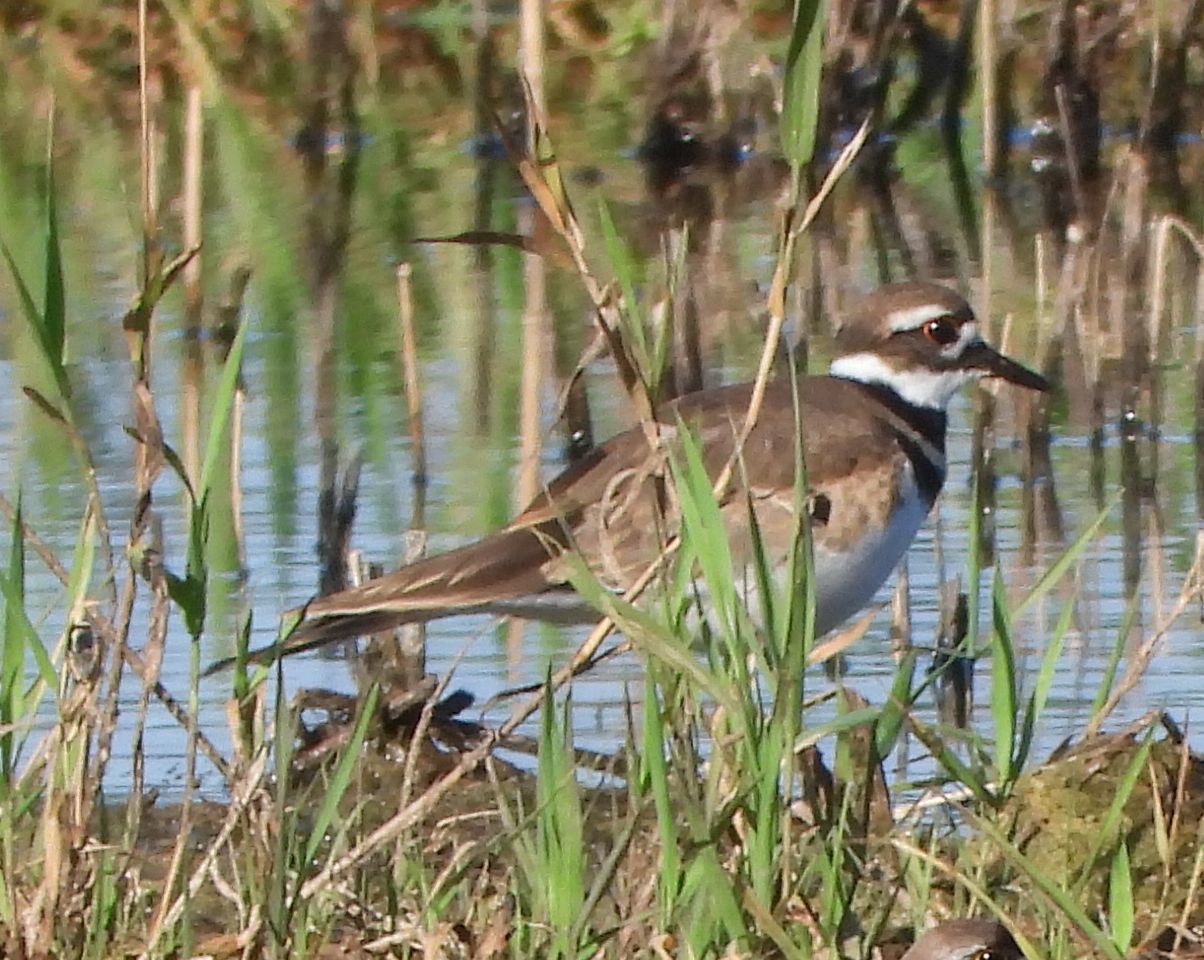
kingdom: Animalia
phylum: Chordata
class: Aves
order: Charadriiformes
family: Charadriidae
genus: Charadrius
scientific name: Charadrius vociferus
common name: Killdeer
